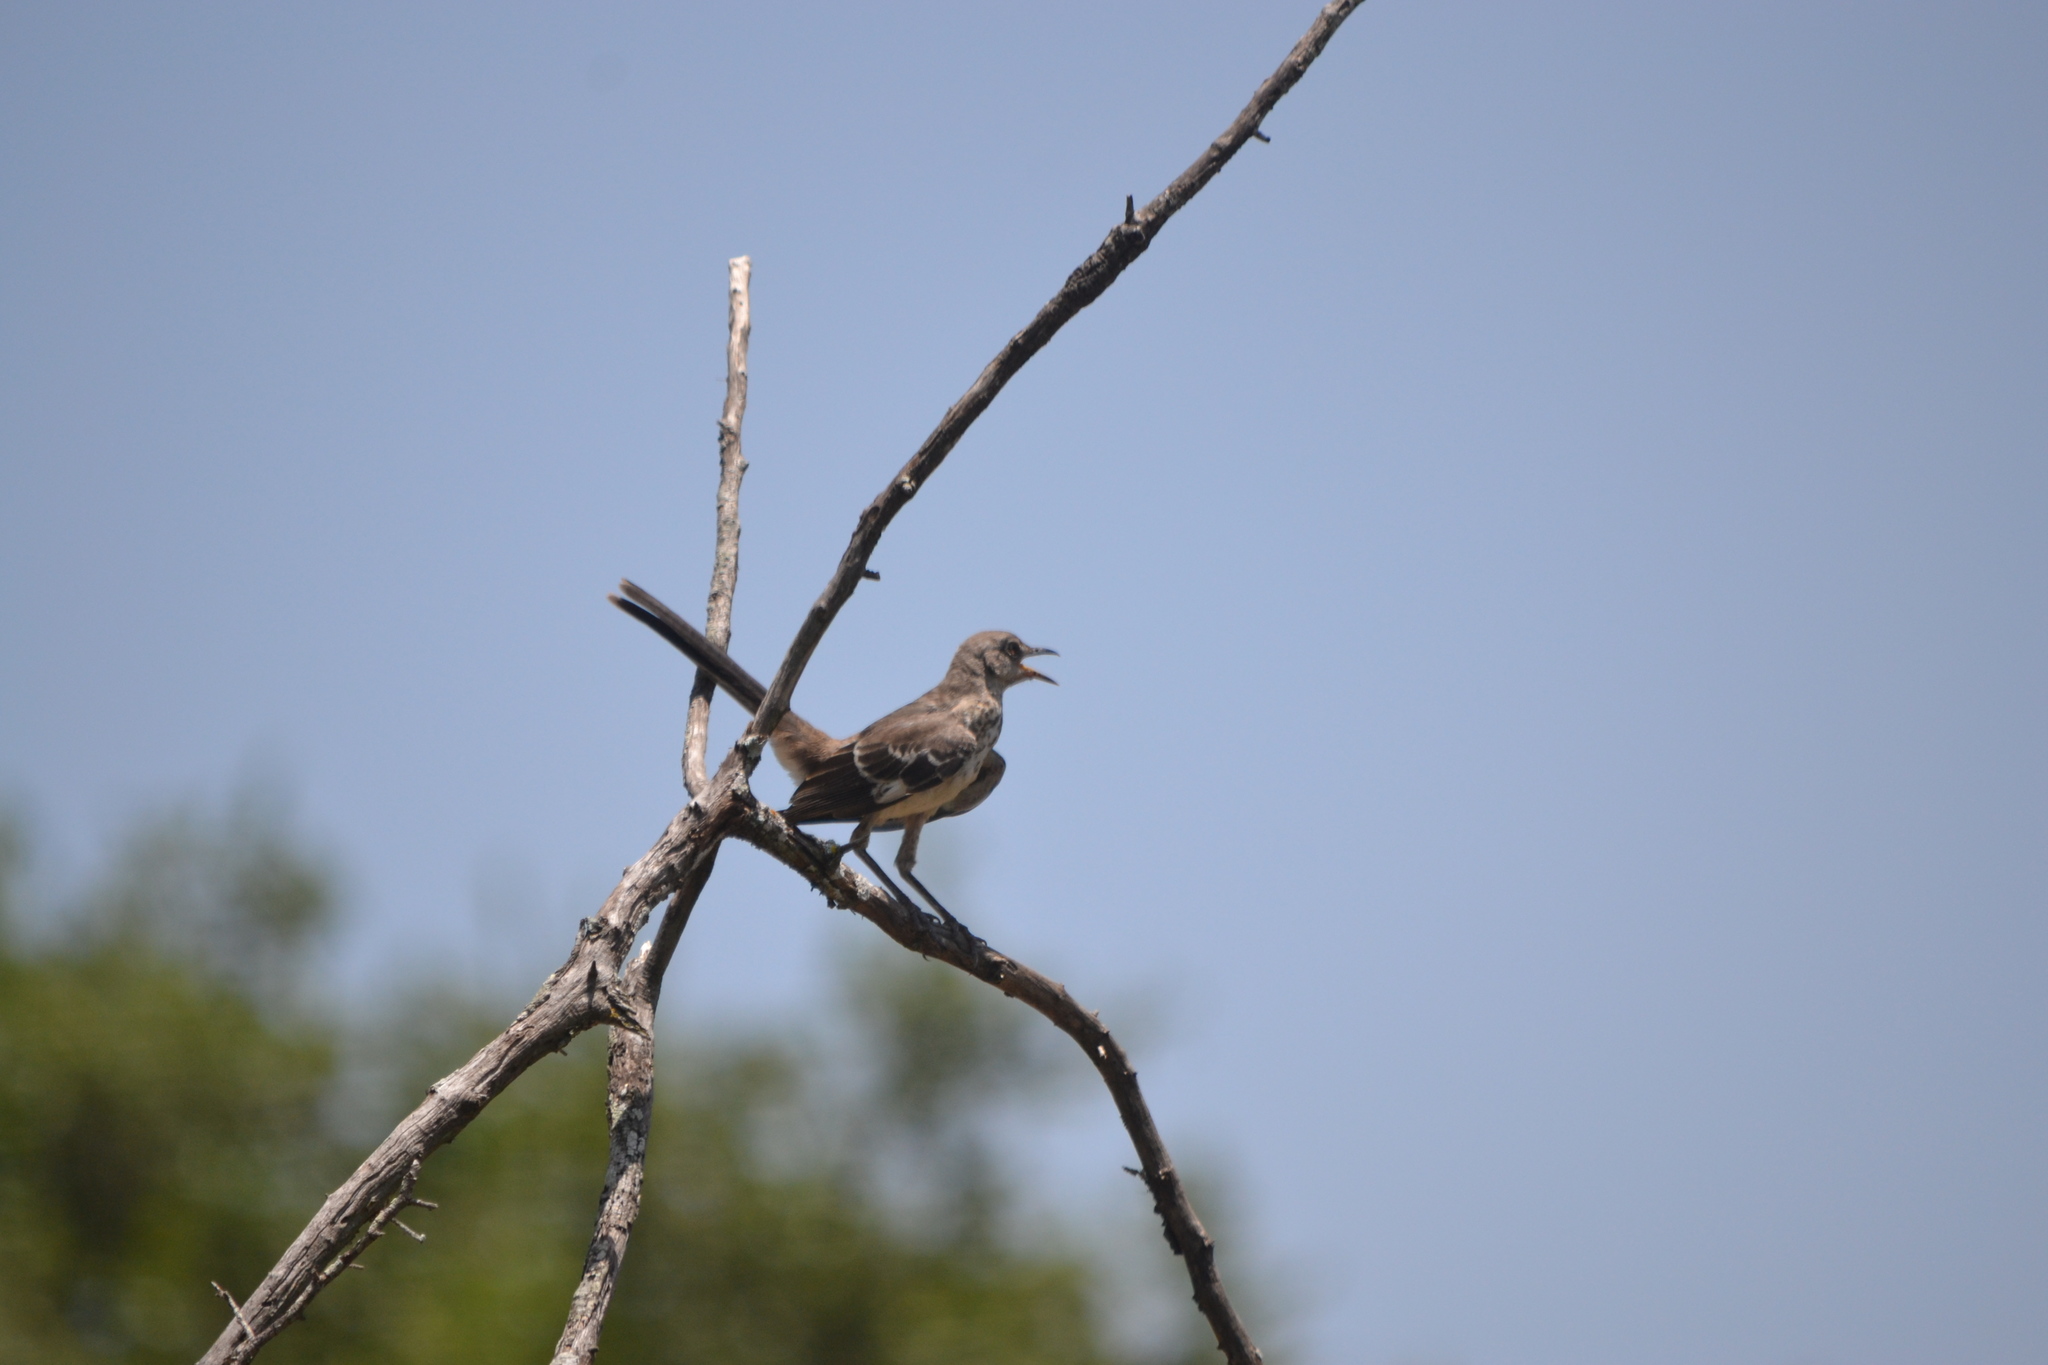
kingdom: Animalia
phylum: Chordata
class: Aves
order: Passeriformes
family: Mimidae
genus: Mimus
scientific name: Mimus polyglottos
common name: Northern mockingbird
